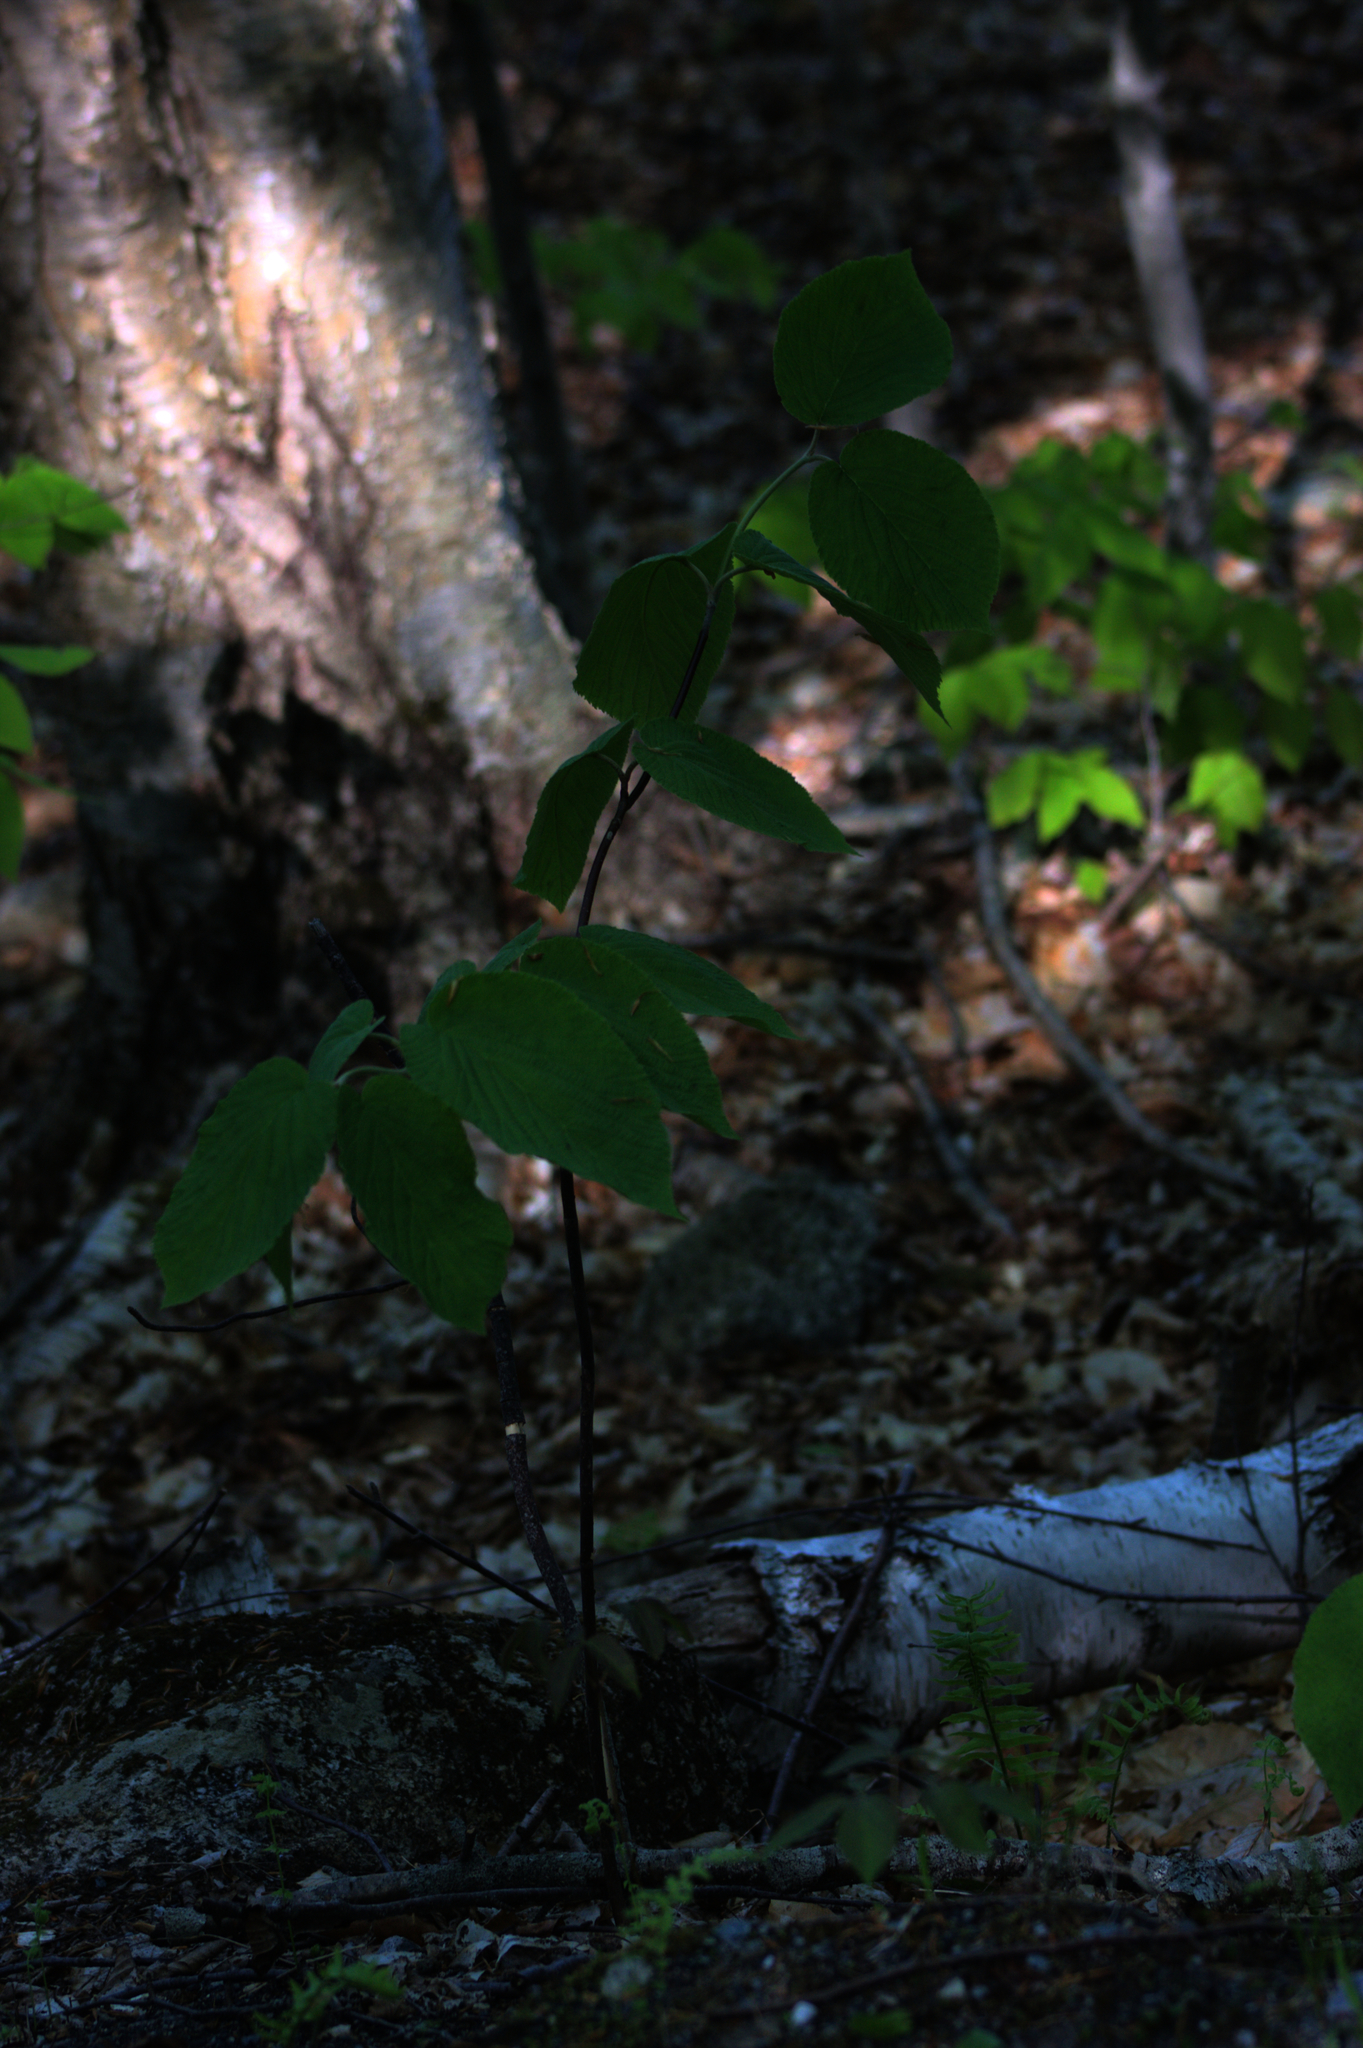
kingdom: Plantae
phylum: Tracheophyta
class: Magnoliopsida
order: Dipsacales
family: Viburnaceae
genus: Viburnum
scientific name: Viburnum lantanoides
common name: Hobblebush
